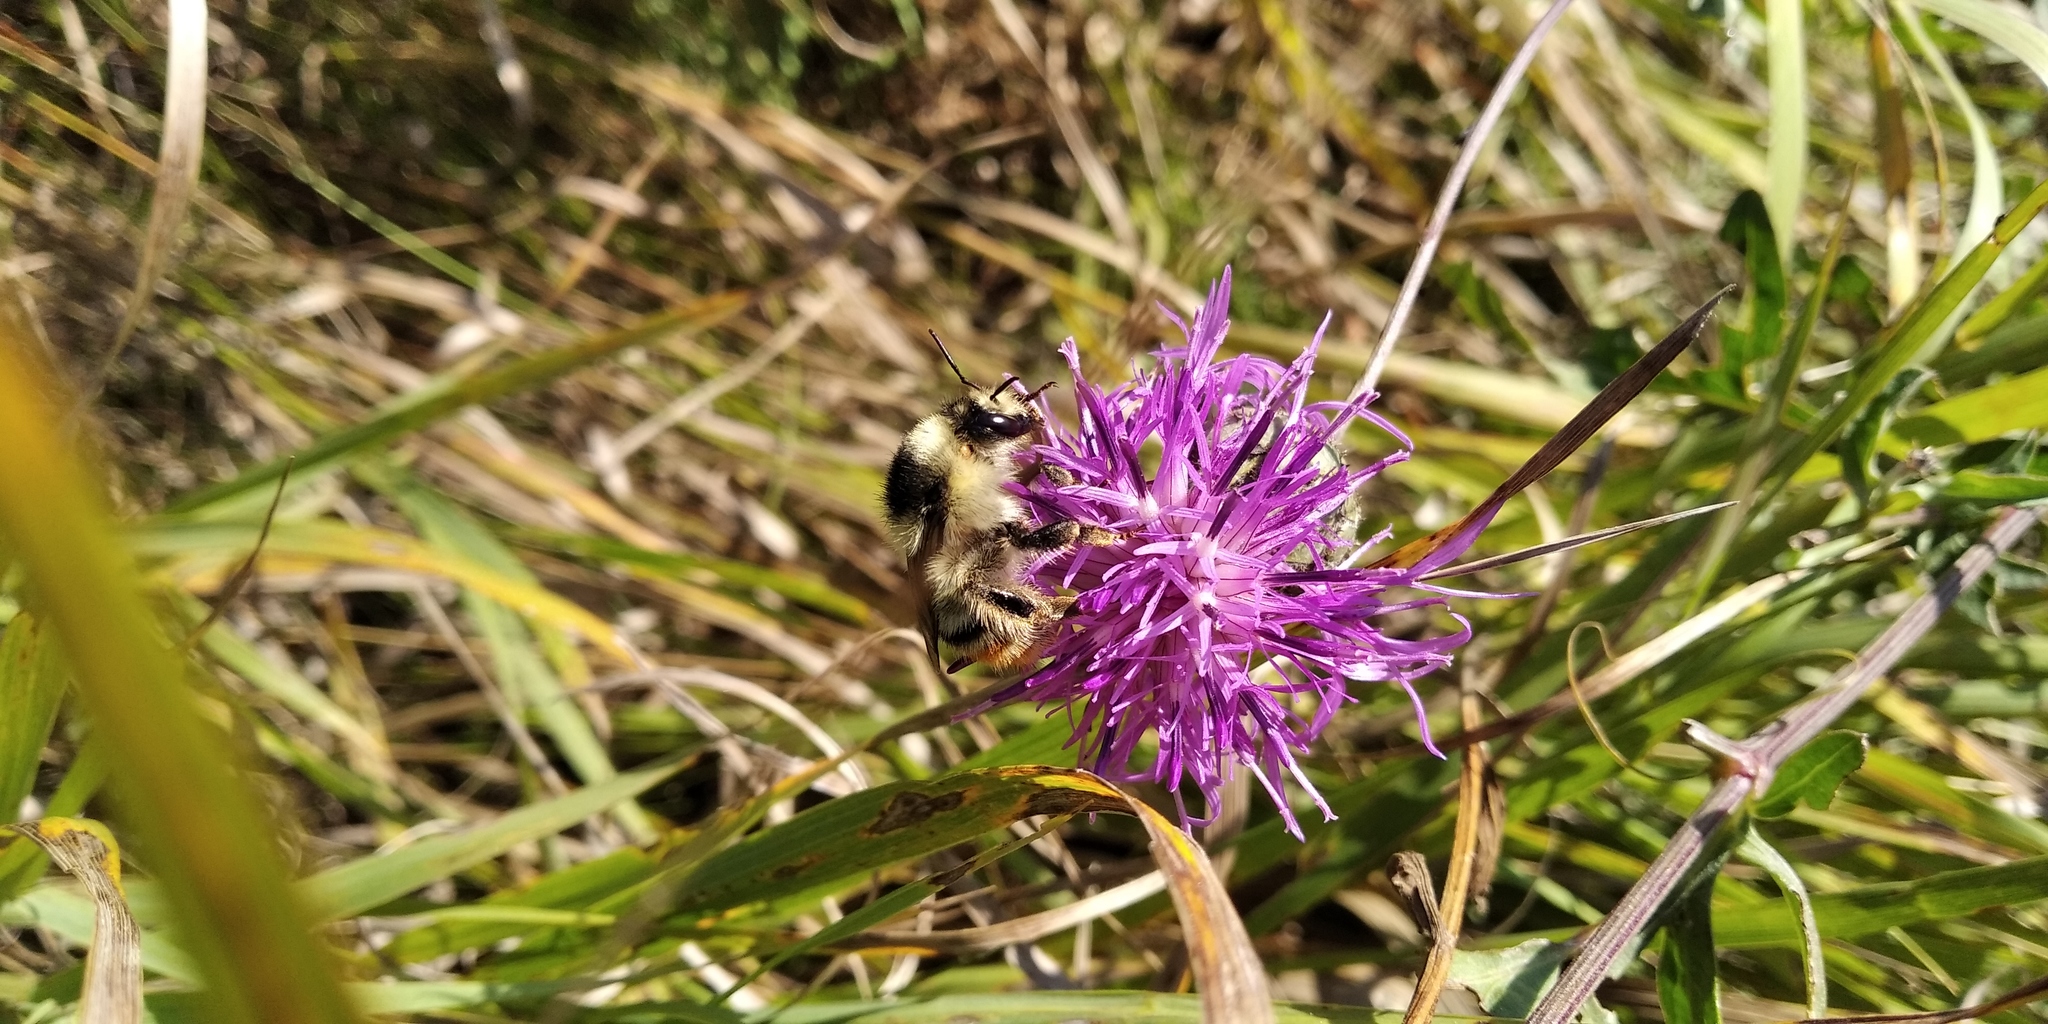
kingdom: Animalia
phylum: Arthropoda
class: Insecta
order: Hymenoptera
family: Apidae
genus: Bombus
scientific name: Bombus sylvarum
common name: Shrill carder bee
